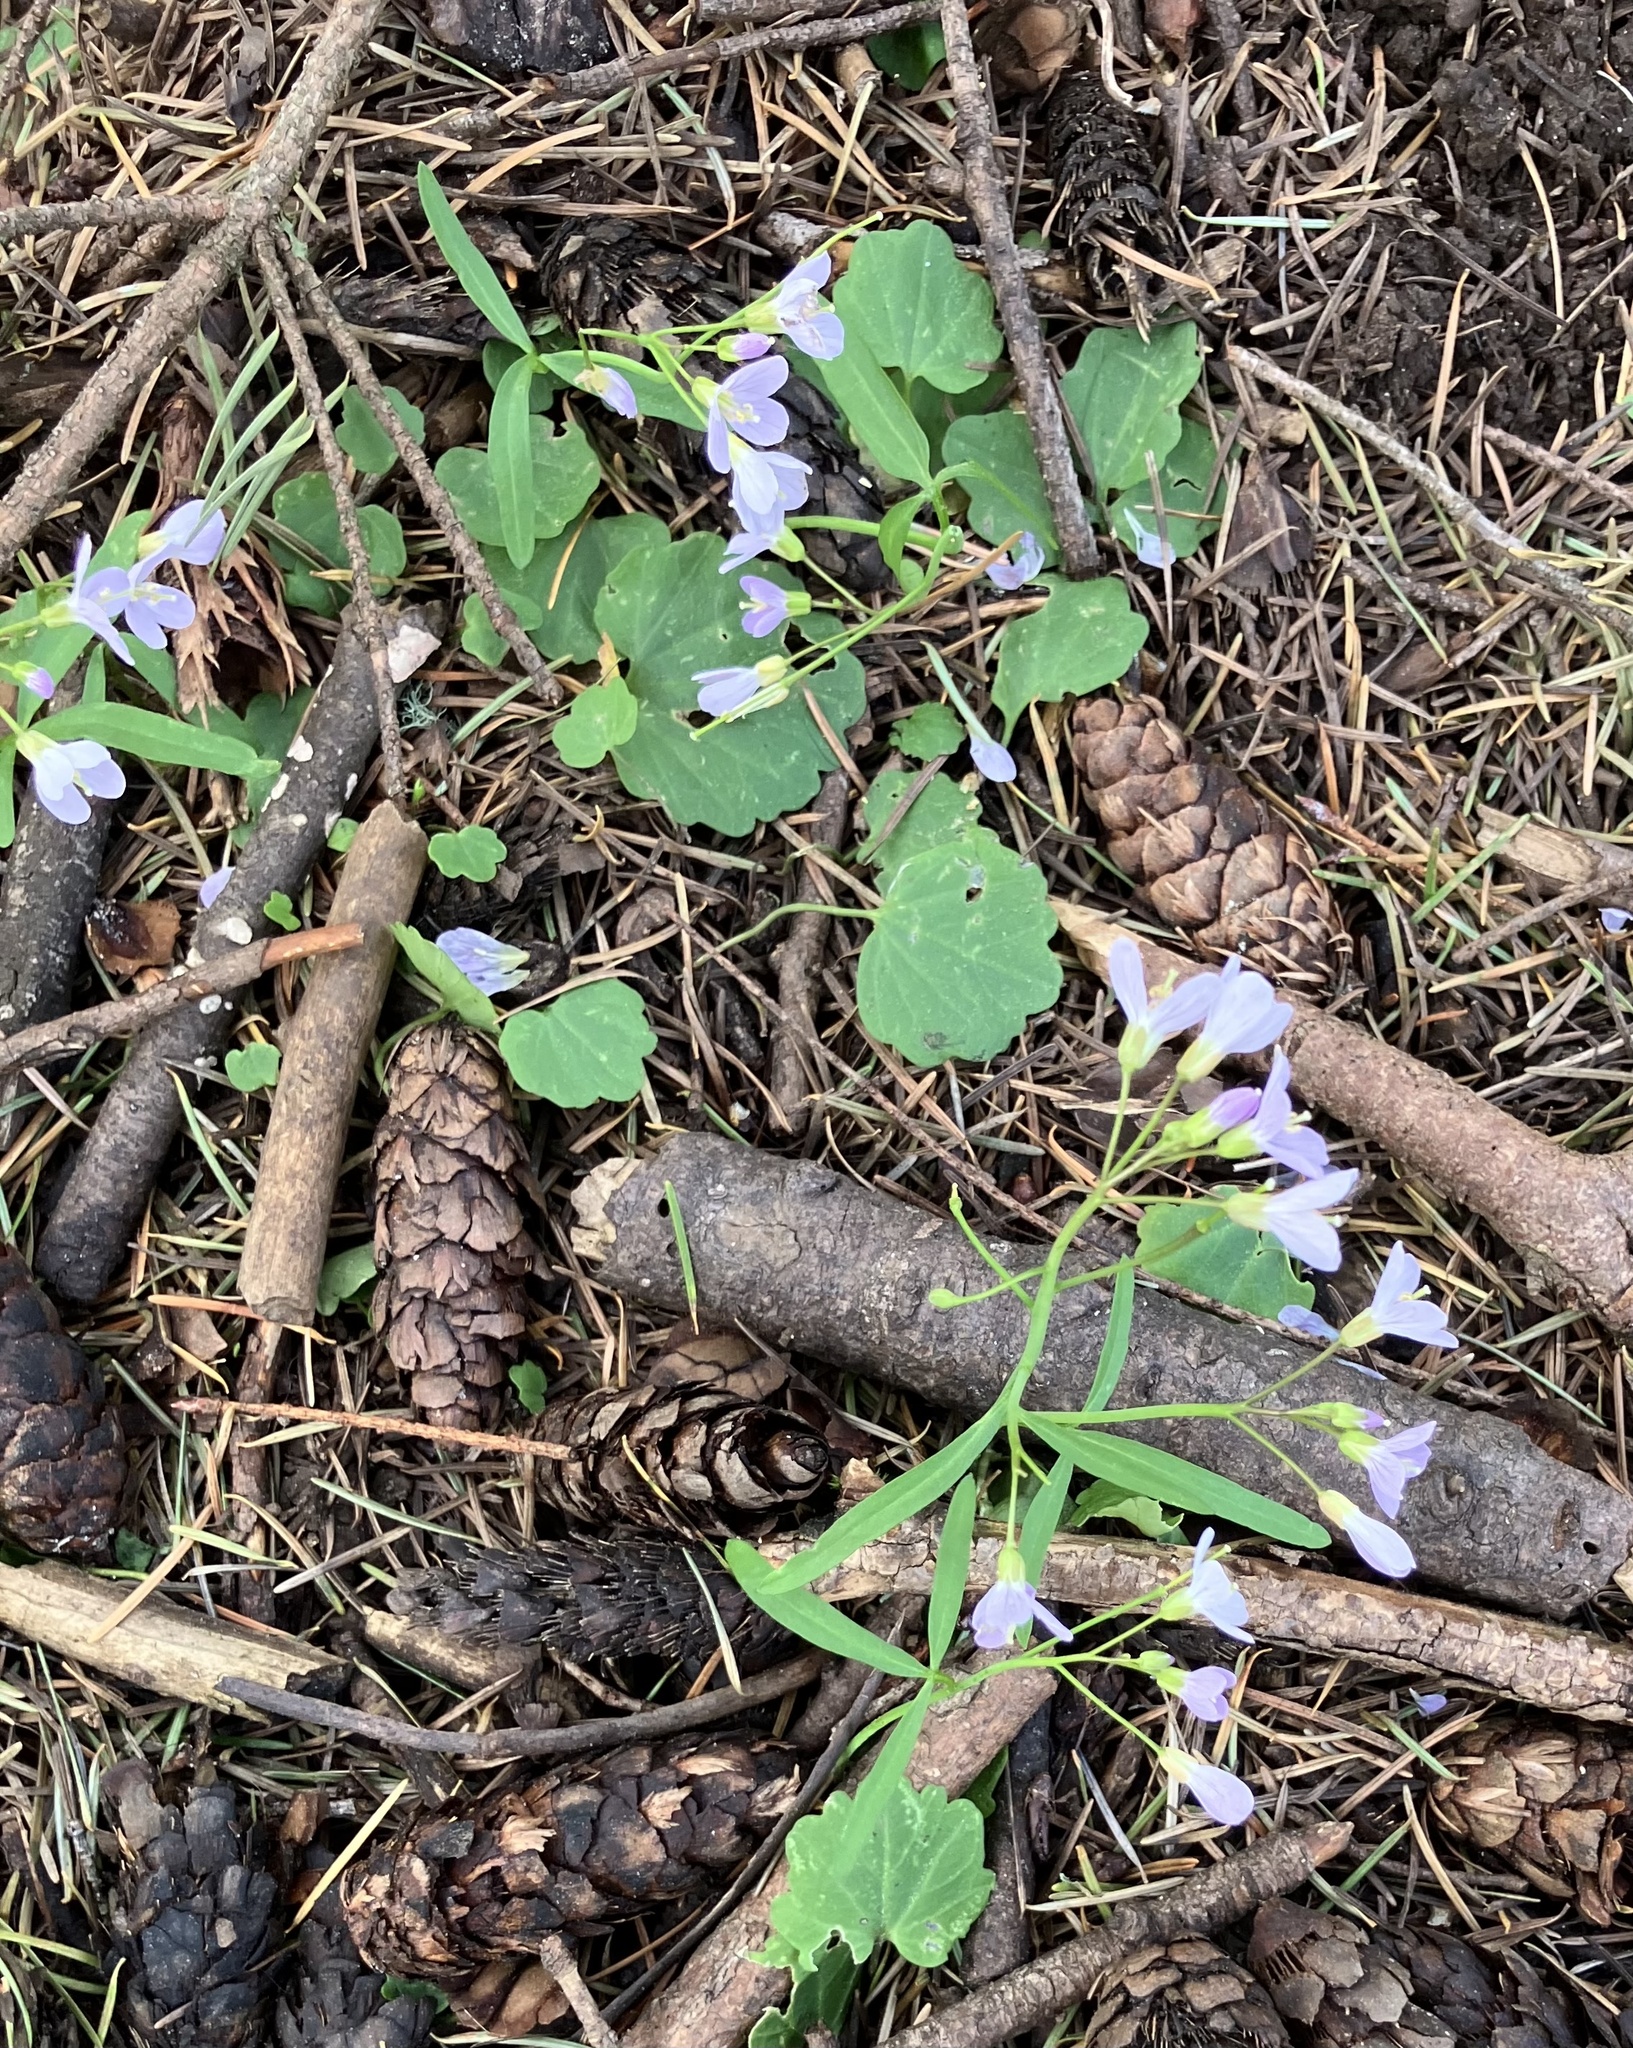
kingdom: Plantae
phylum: Tracheophyta
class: Magnoliopsida
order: Brassicales
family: Brassicaceae
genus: Cardamine
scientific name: Cardamine nuttallii
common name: Nuttall's toothwort
